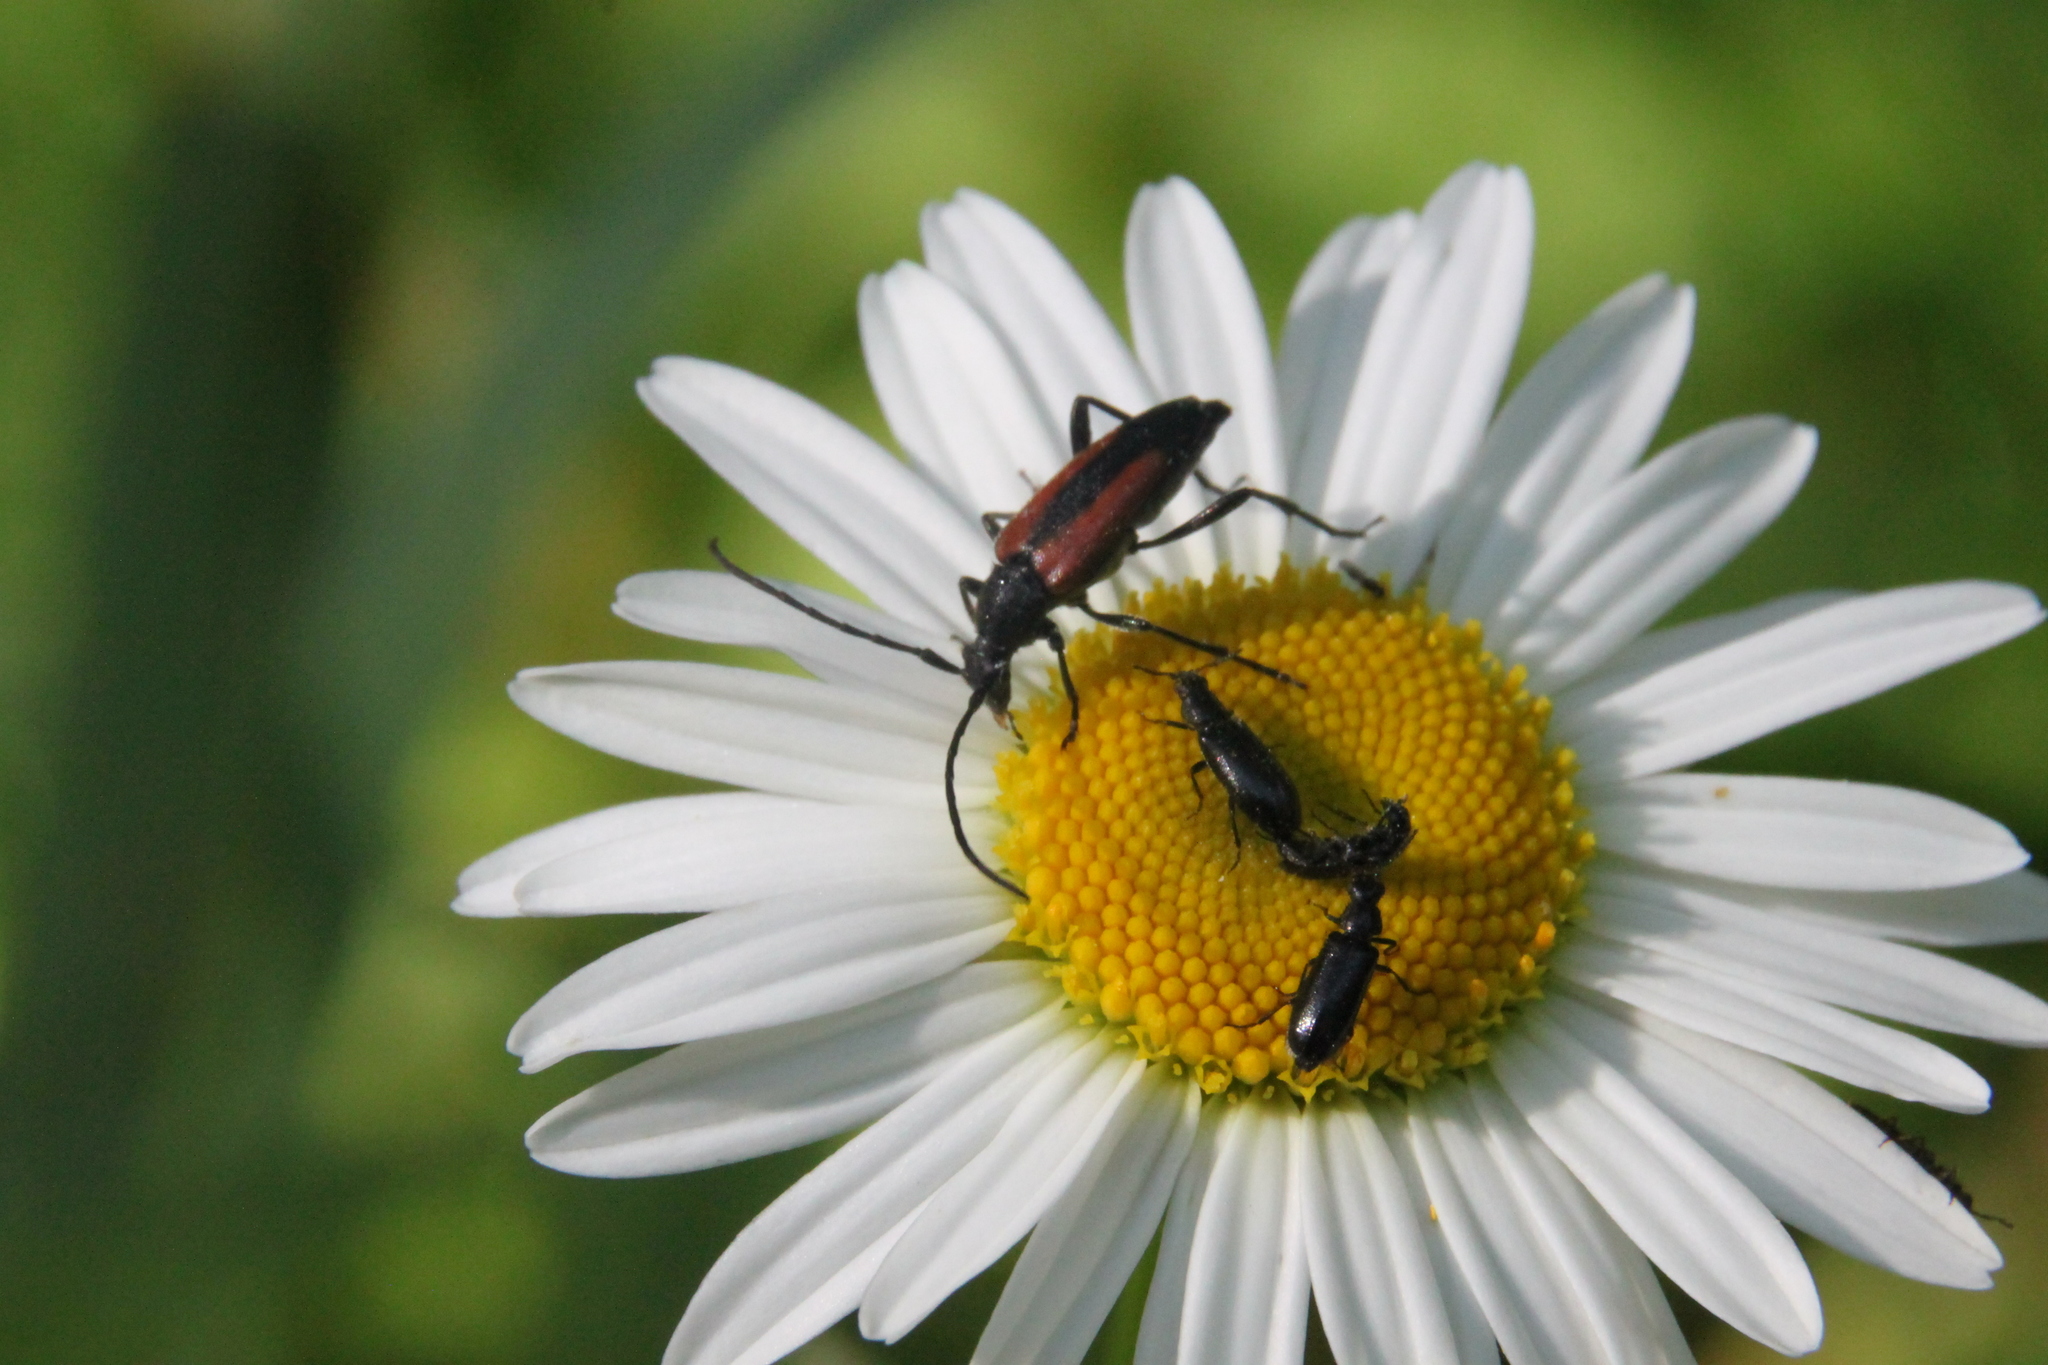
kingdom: Animalia
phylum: Arthropoda
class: Insecta
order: Coleoptera
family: Cerambycidae
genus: Stenurella
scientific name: Stenurella melanura
